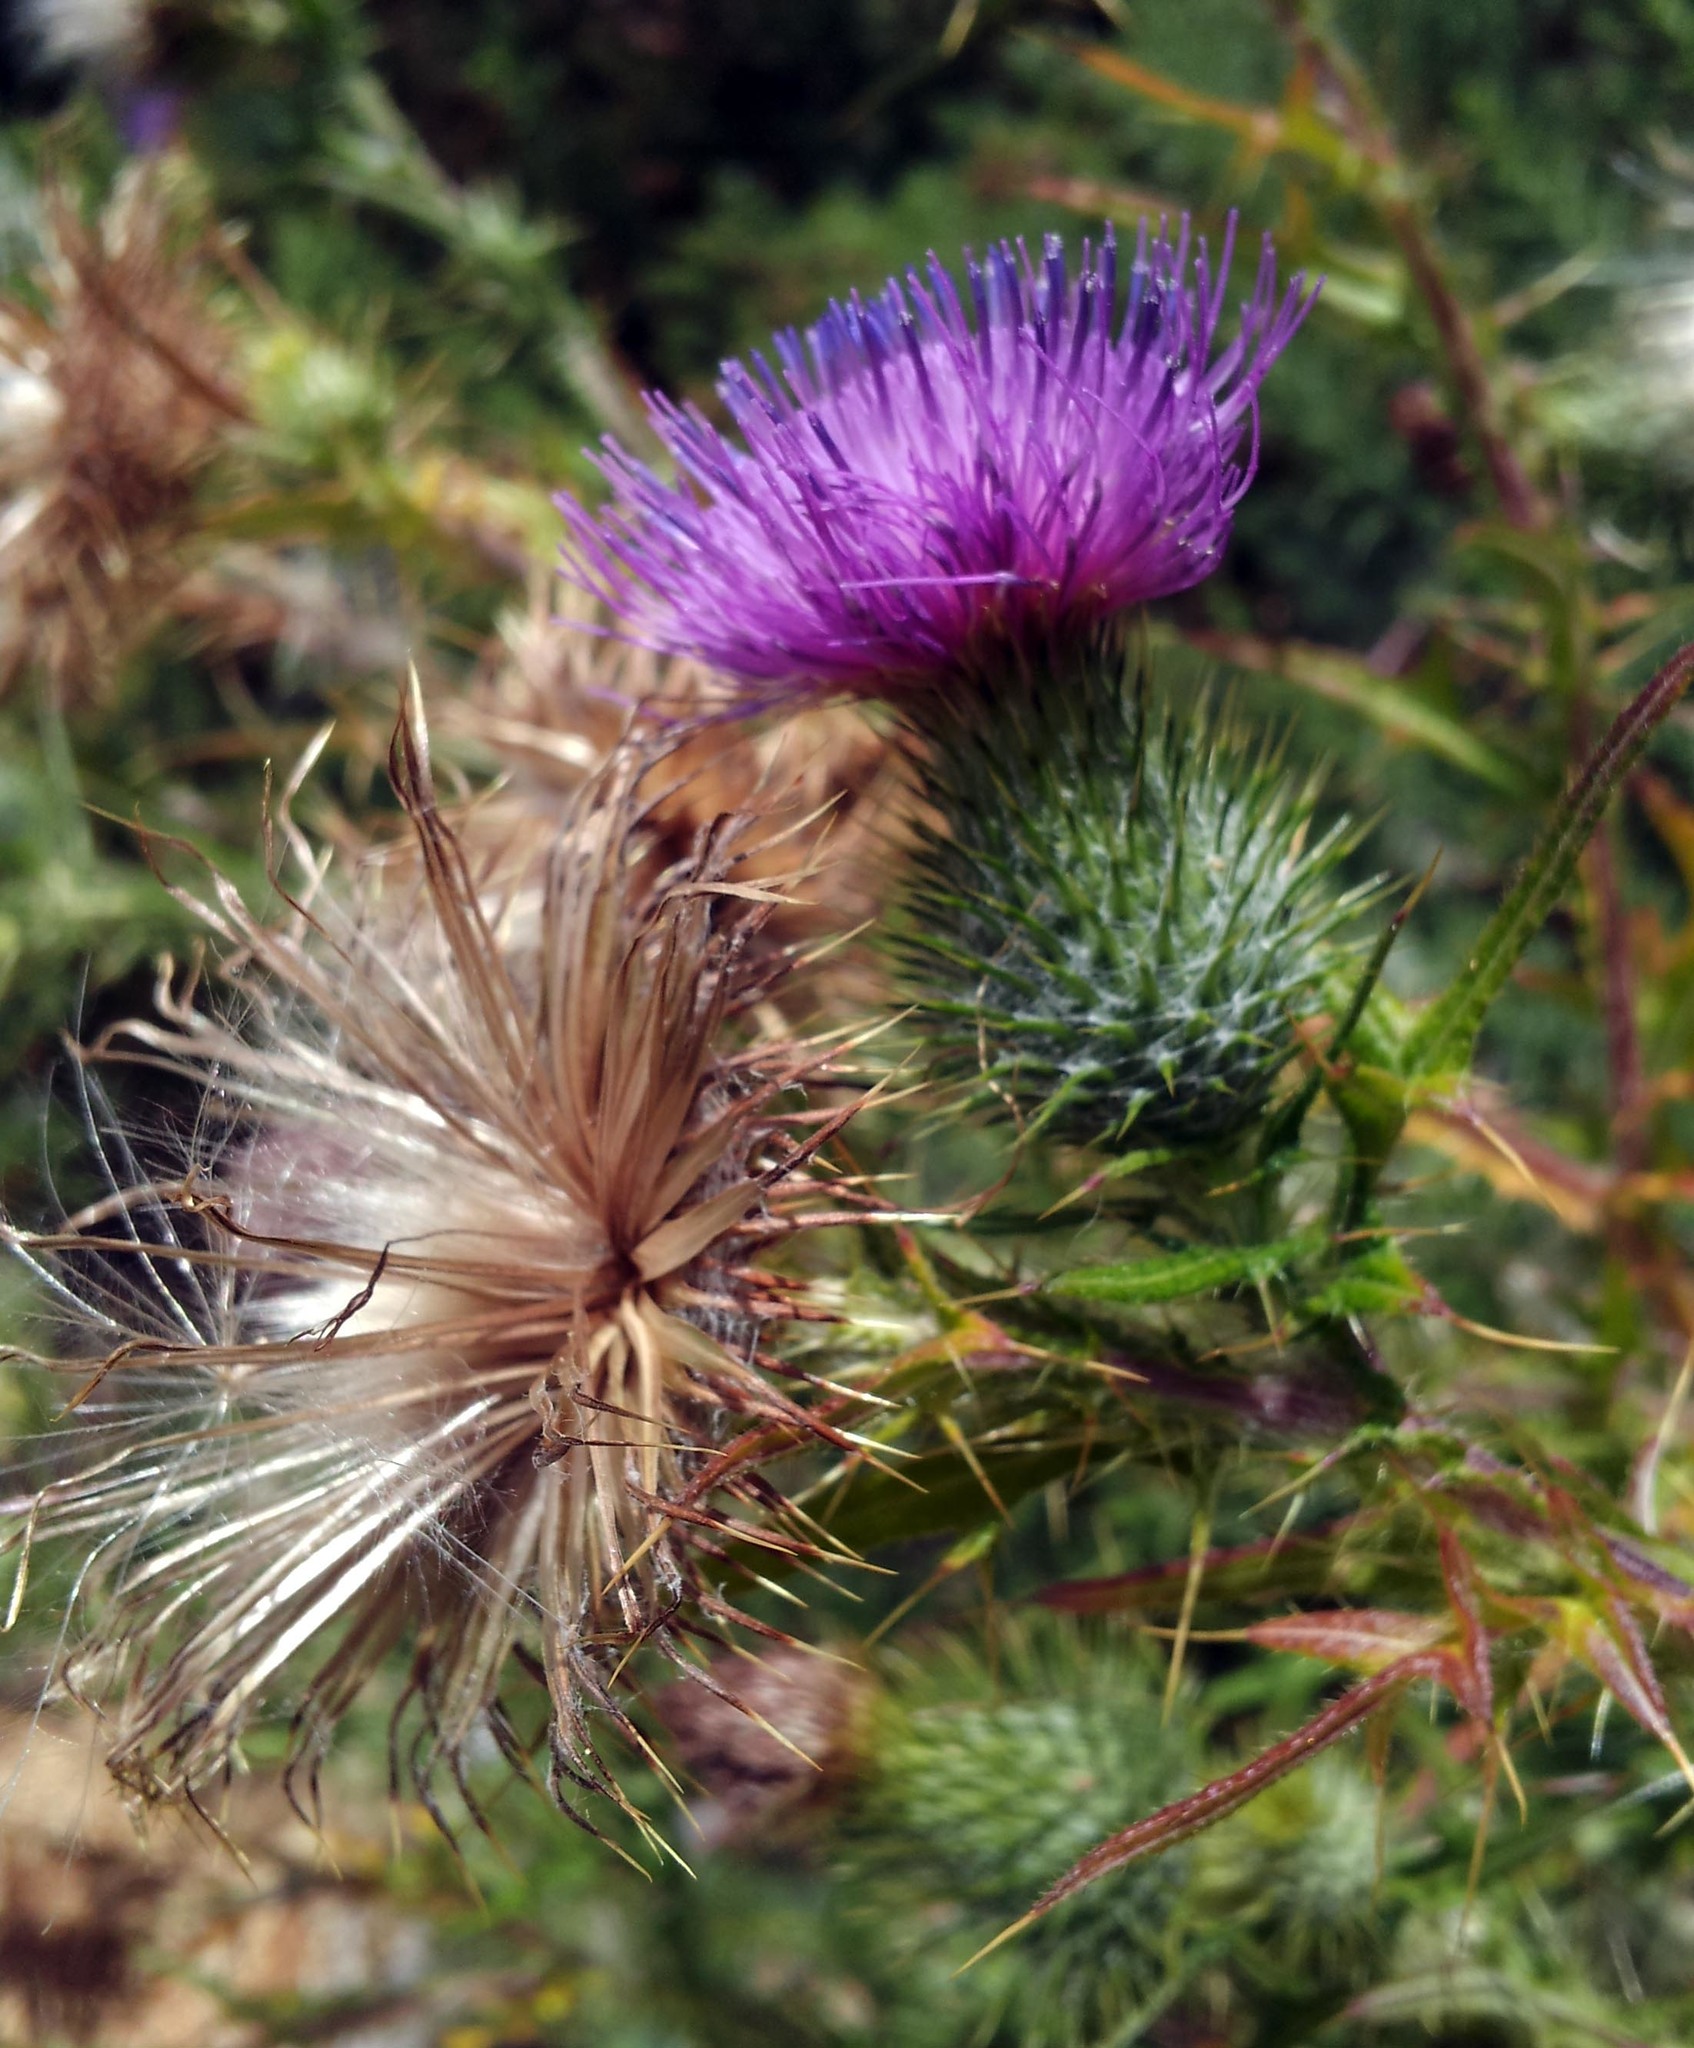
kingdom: Plantae
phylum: Tracheophyta
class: Magnoliopsida
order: Asterales
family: Asteraceae
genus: Cirsium
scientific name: Cirsium vulgare
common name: Bull thistle
